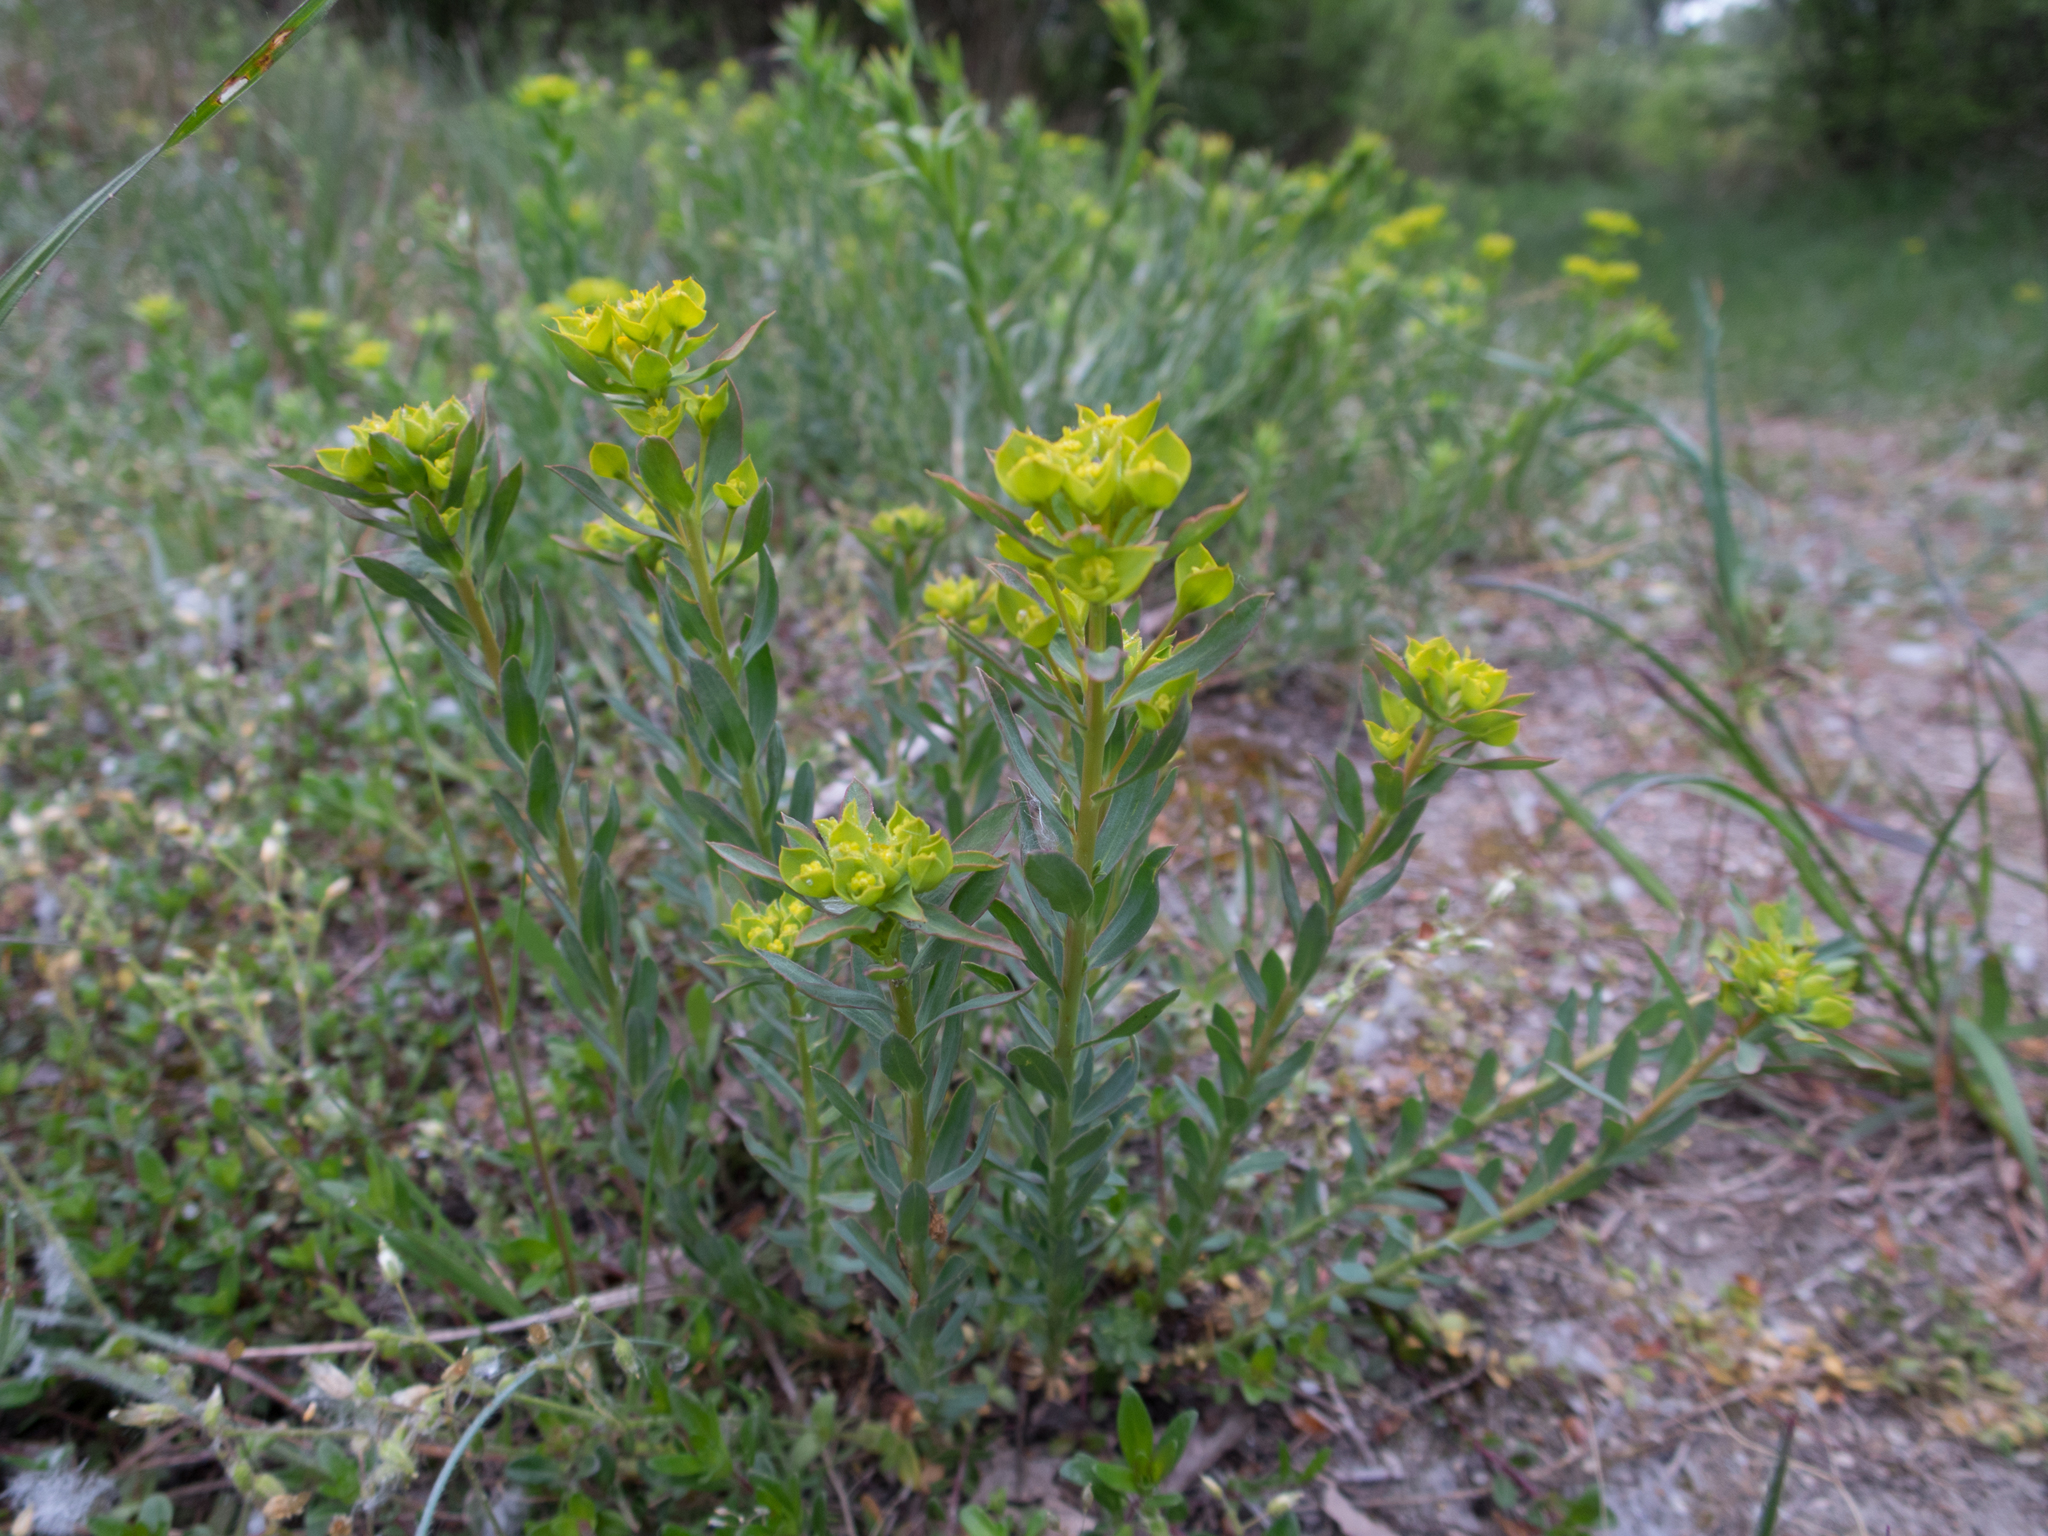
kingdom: Plantae
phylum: Tracheophyta
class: Magnoliopsida
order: Malpighiales
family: Euphorbiaceae
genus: Euphorbia
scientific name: Euphorbia seguieriana
